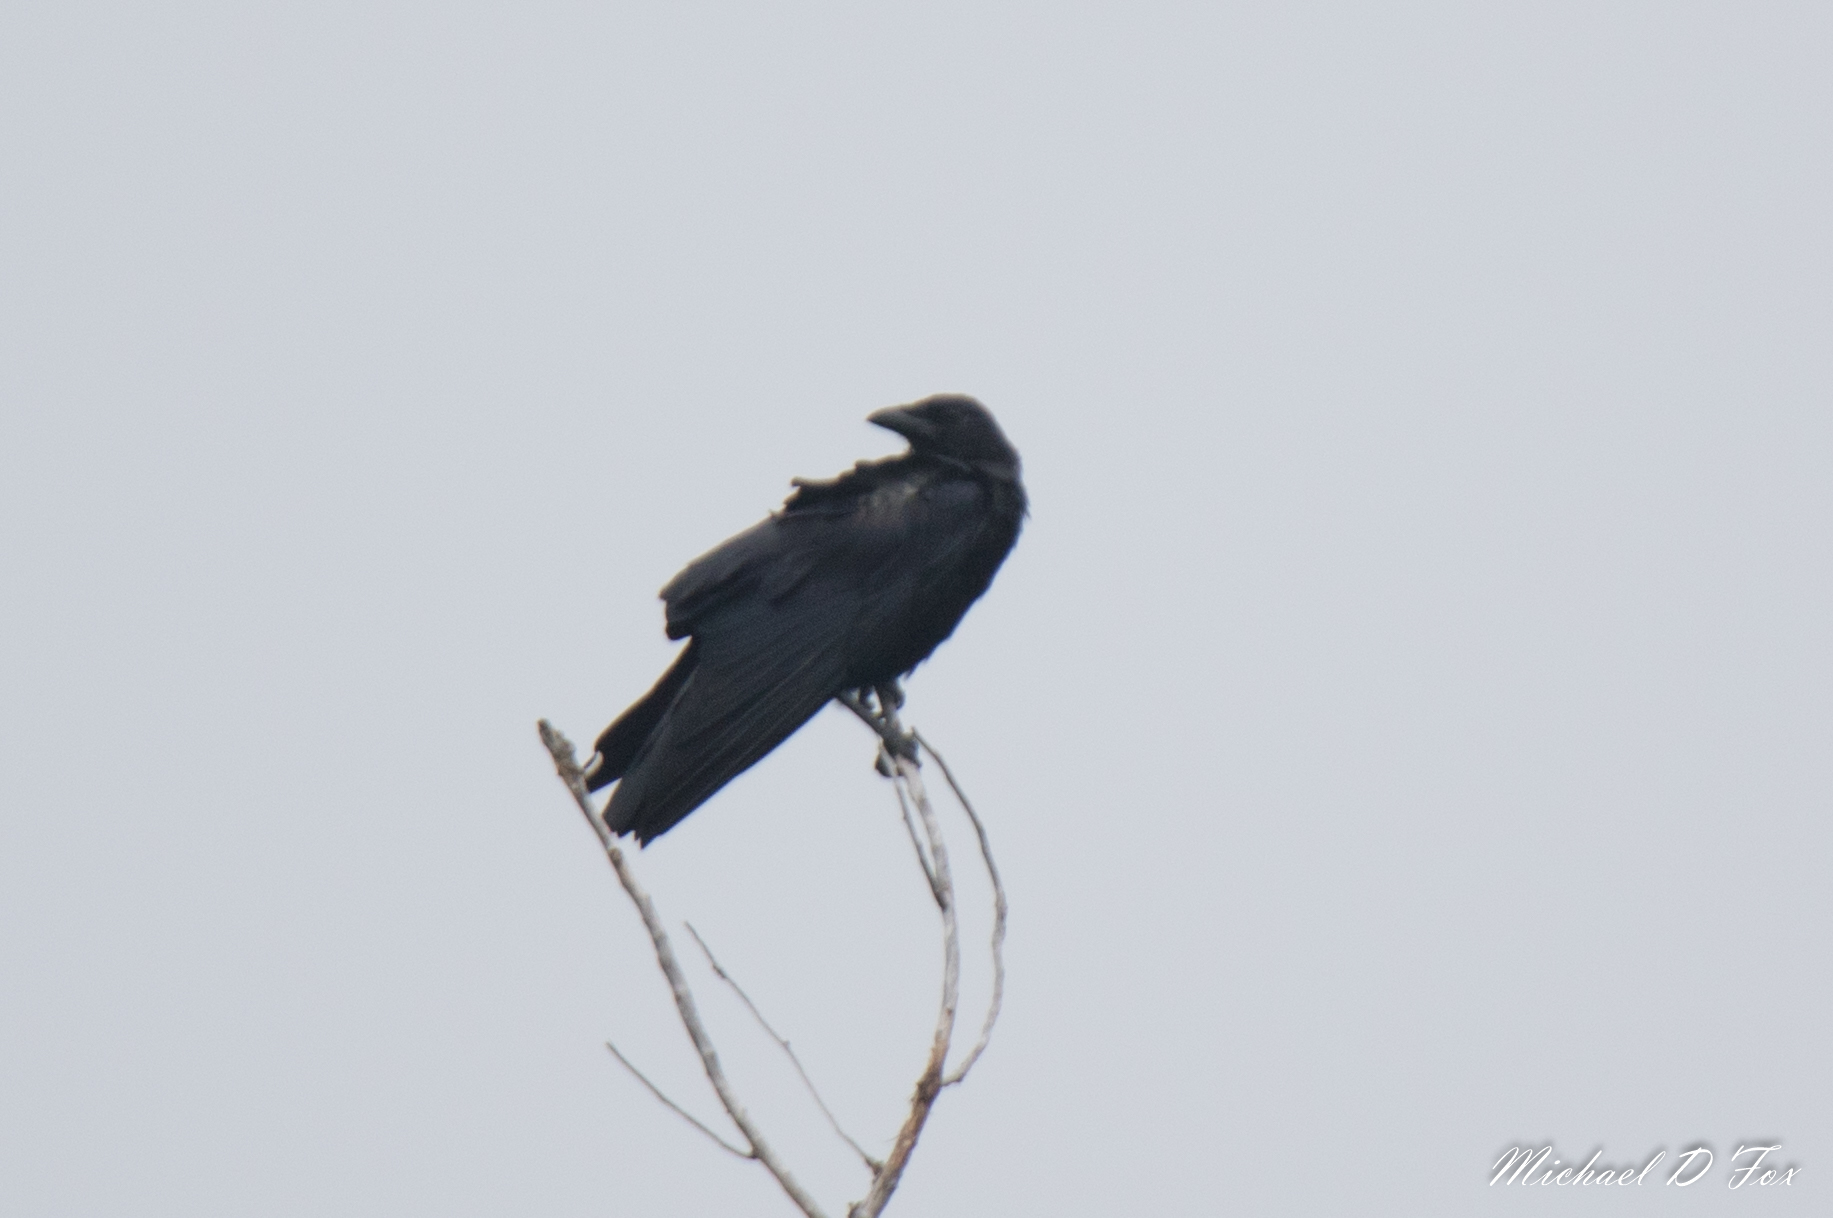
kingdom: Animalia
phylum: Chordata
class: Aves
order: Passeriformes
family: Corvidae
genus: Corvus
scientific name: Corvus brachyrhynchos
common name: American crow
